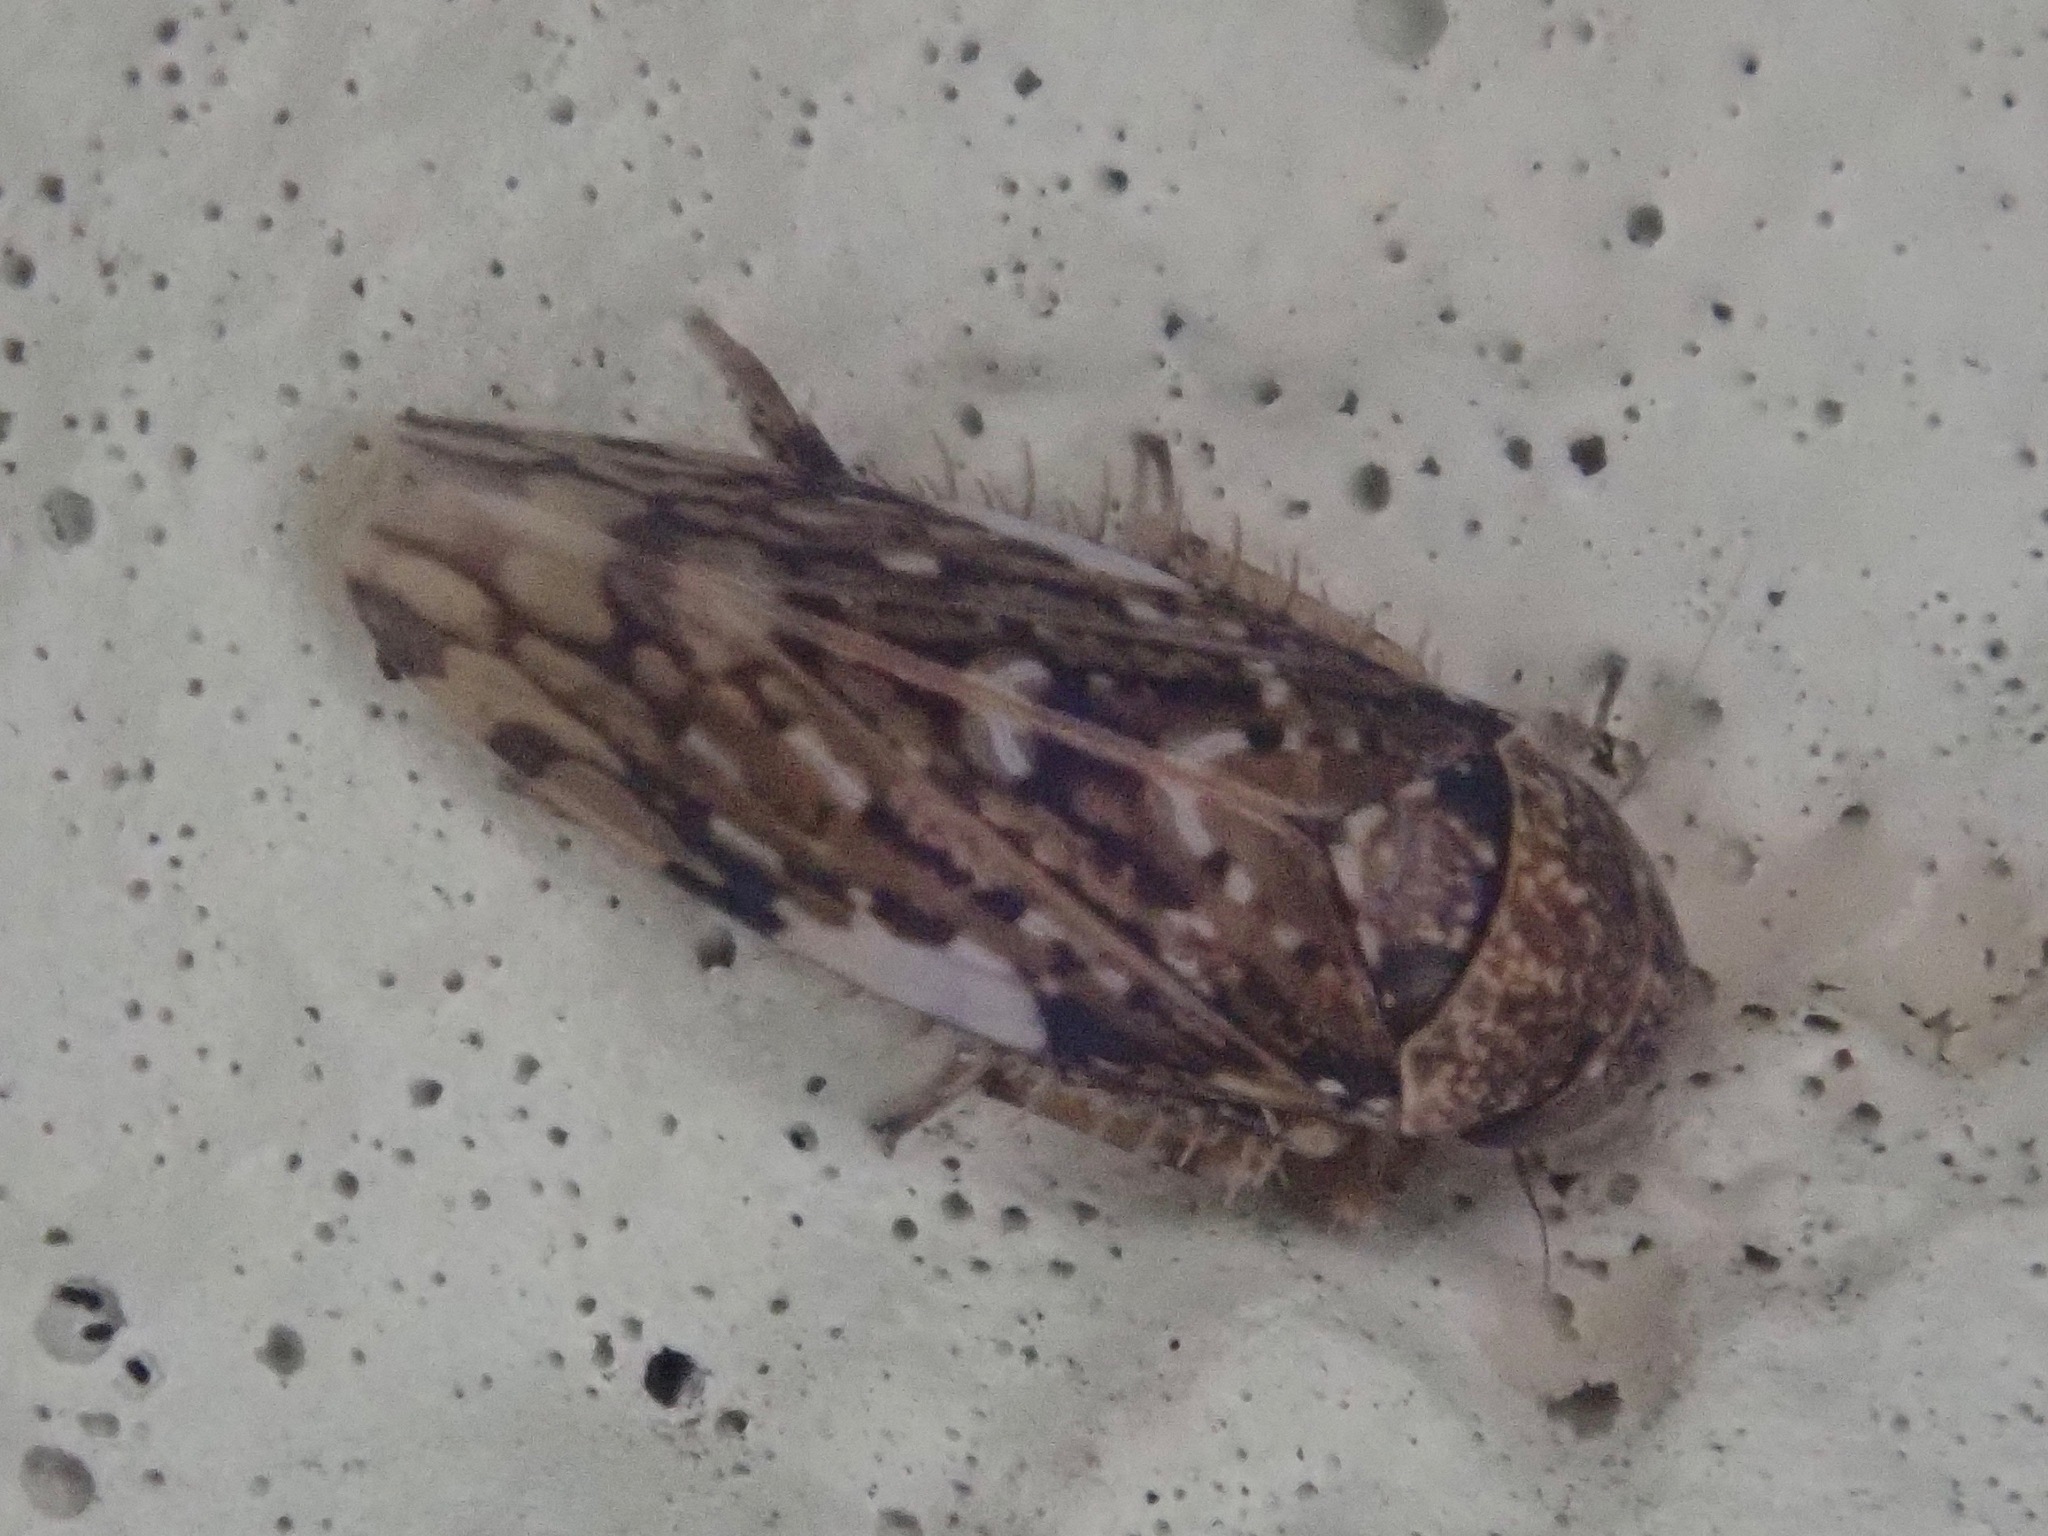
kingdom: Animalia
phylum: Arthropoda
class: Insecta
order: Hemiptera
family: Cicadellidae
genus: Xestocephalus
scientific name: Xestocephalus tessellatus
